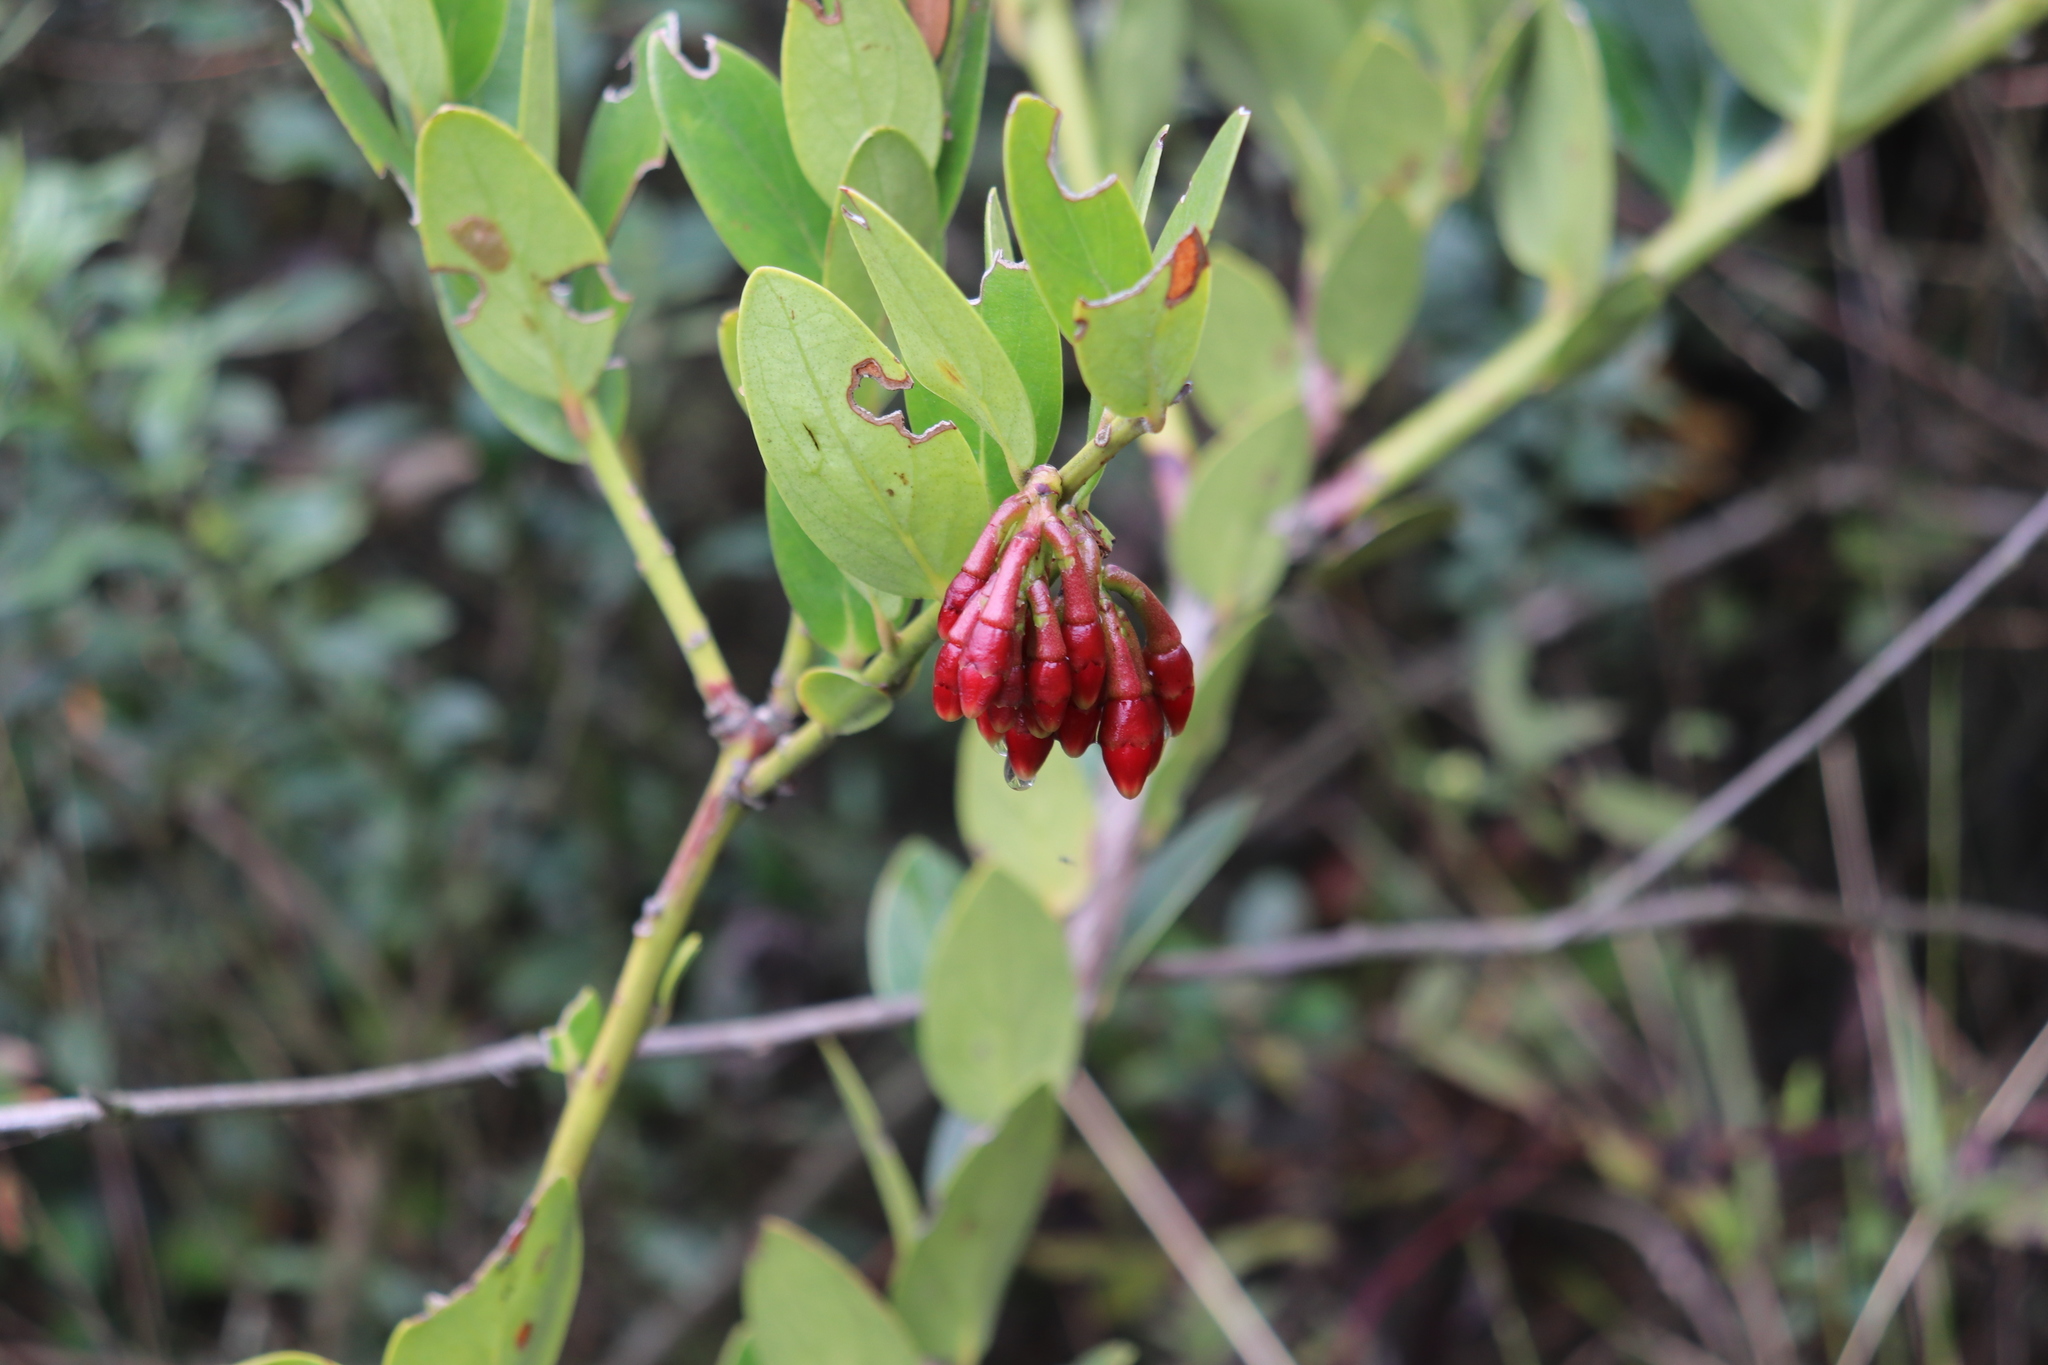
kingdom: Plantae
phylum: Tracheophyta
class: Magnoliopsida
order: Ericales
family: Ericaceae
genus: Macleania
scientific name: Macleania rupestris
